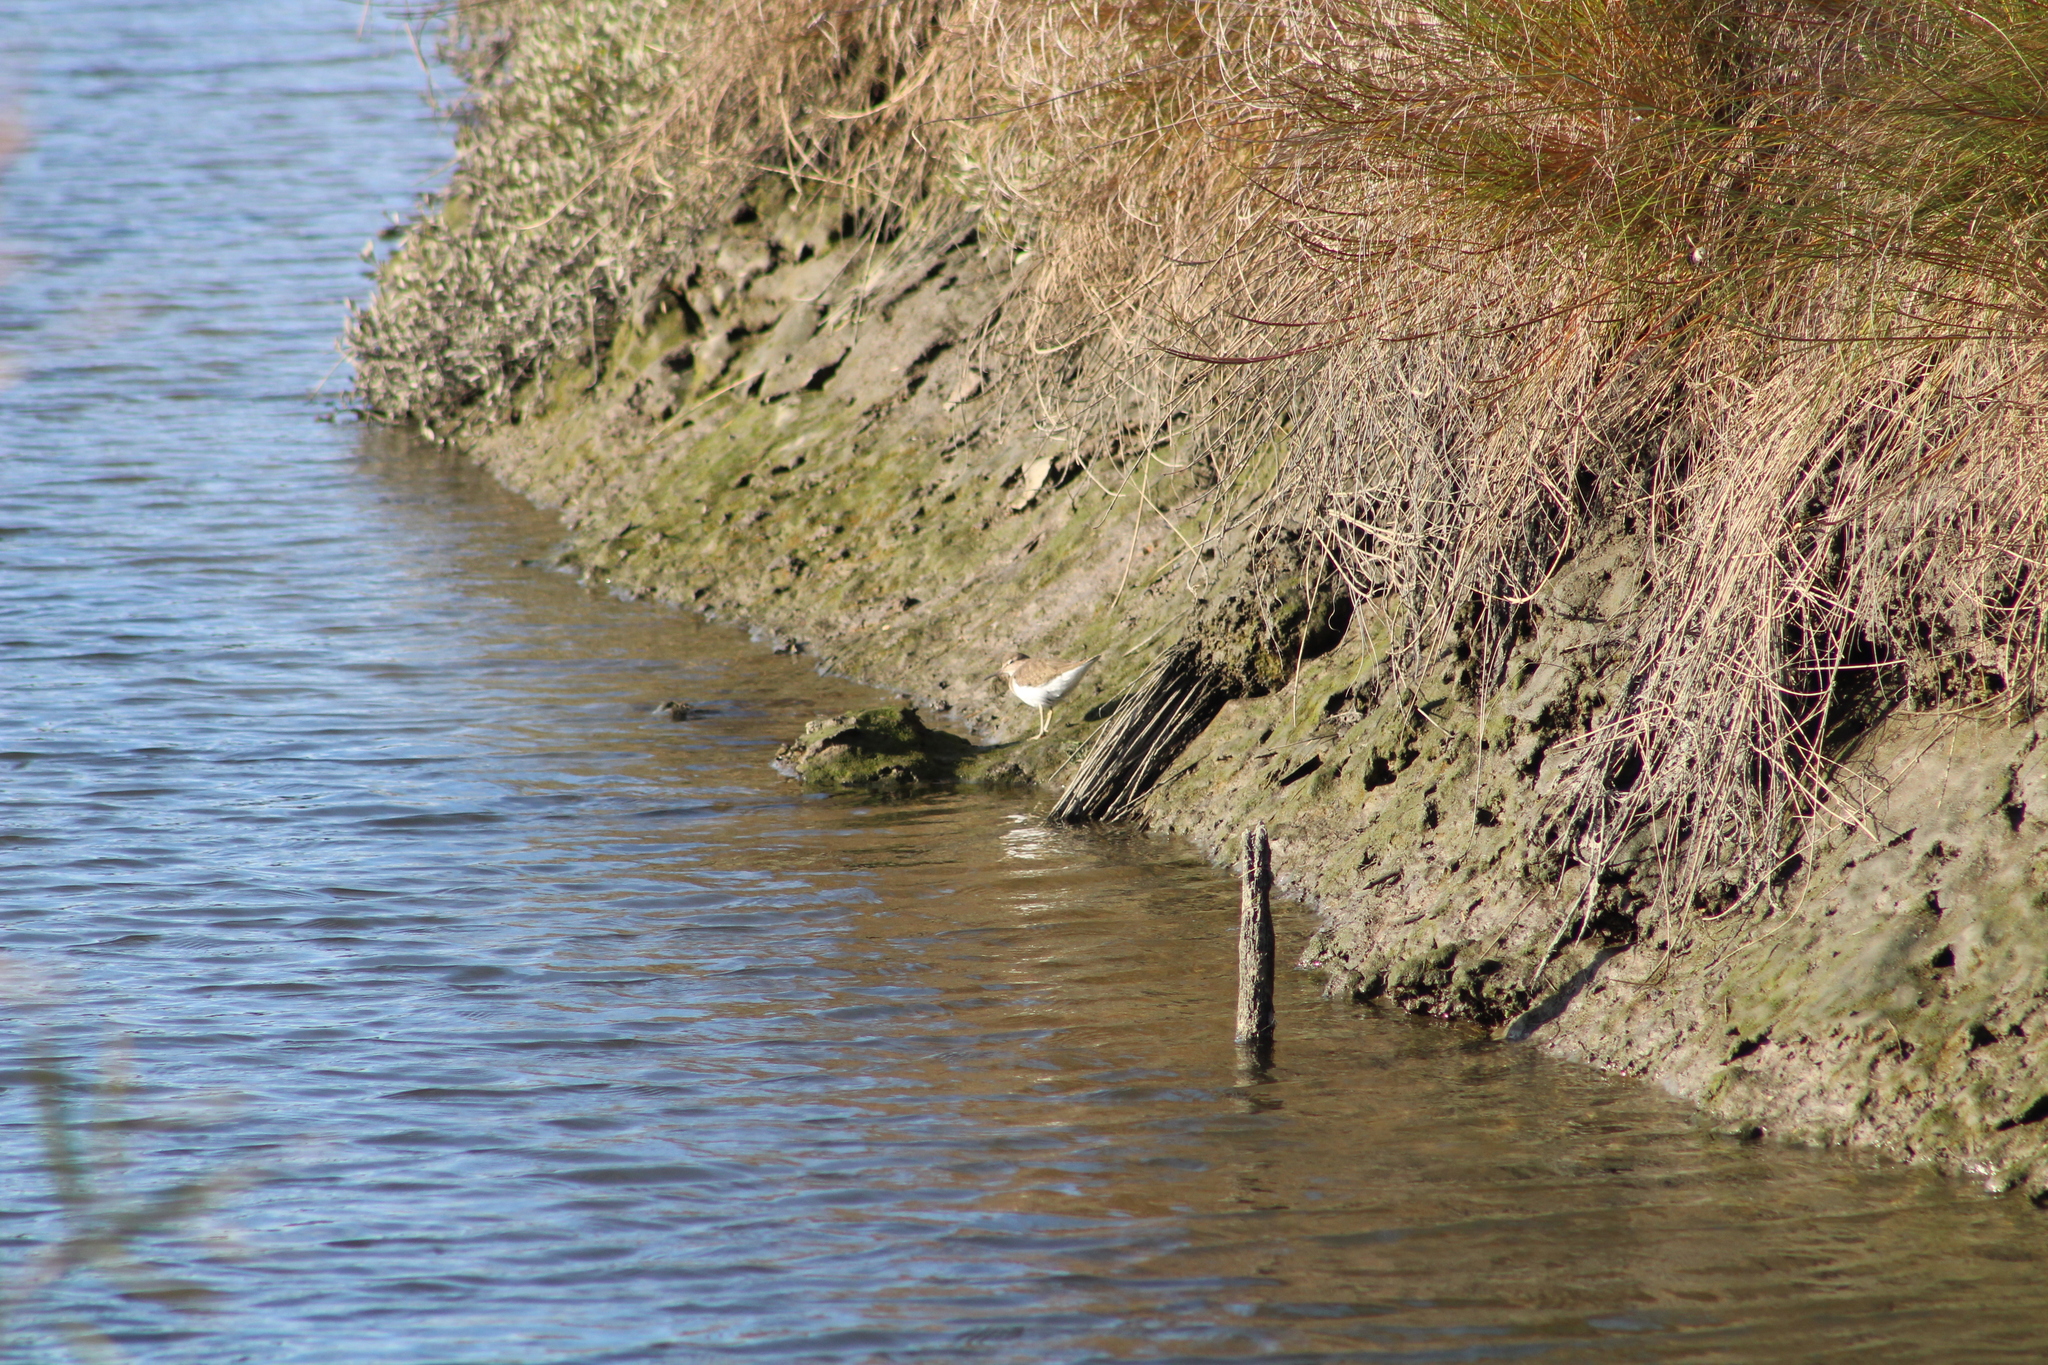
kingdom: Animalia
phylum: Chordata
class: Aves
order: Charadriiformes
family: Scolopacidae
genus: Actitis
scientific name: Actitis hypoleucos
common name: Common sandpiper
